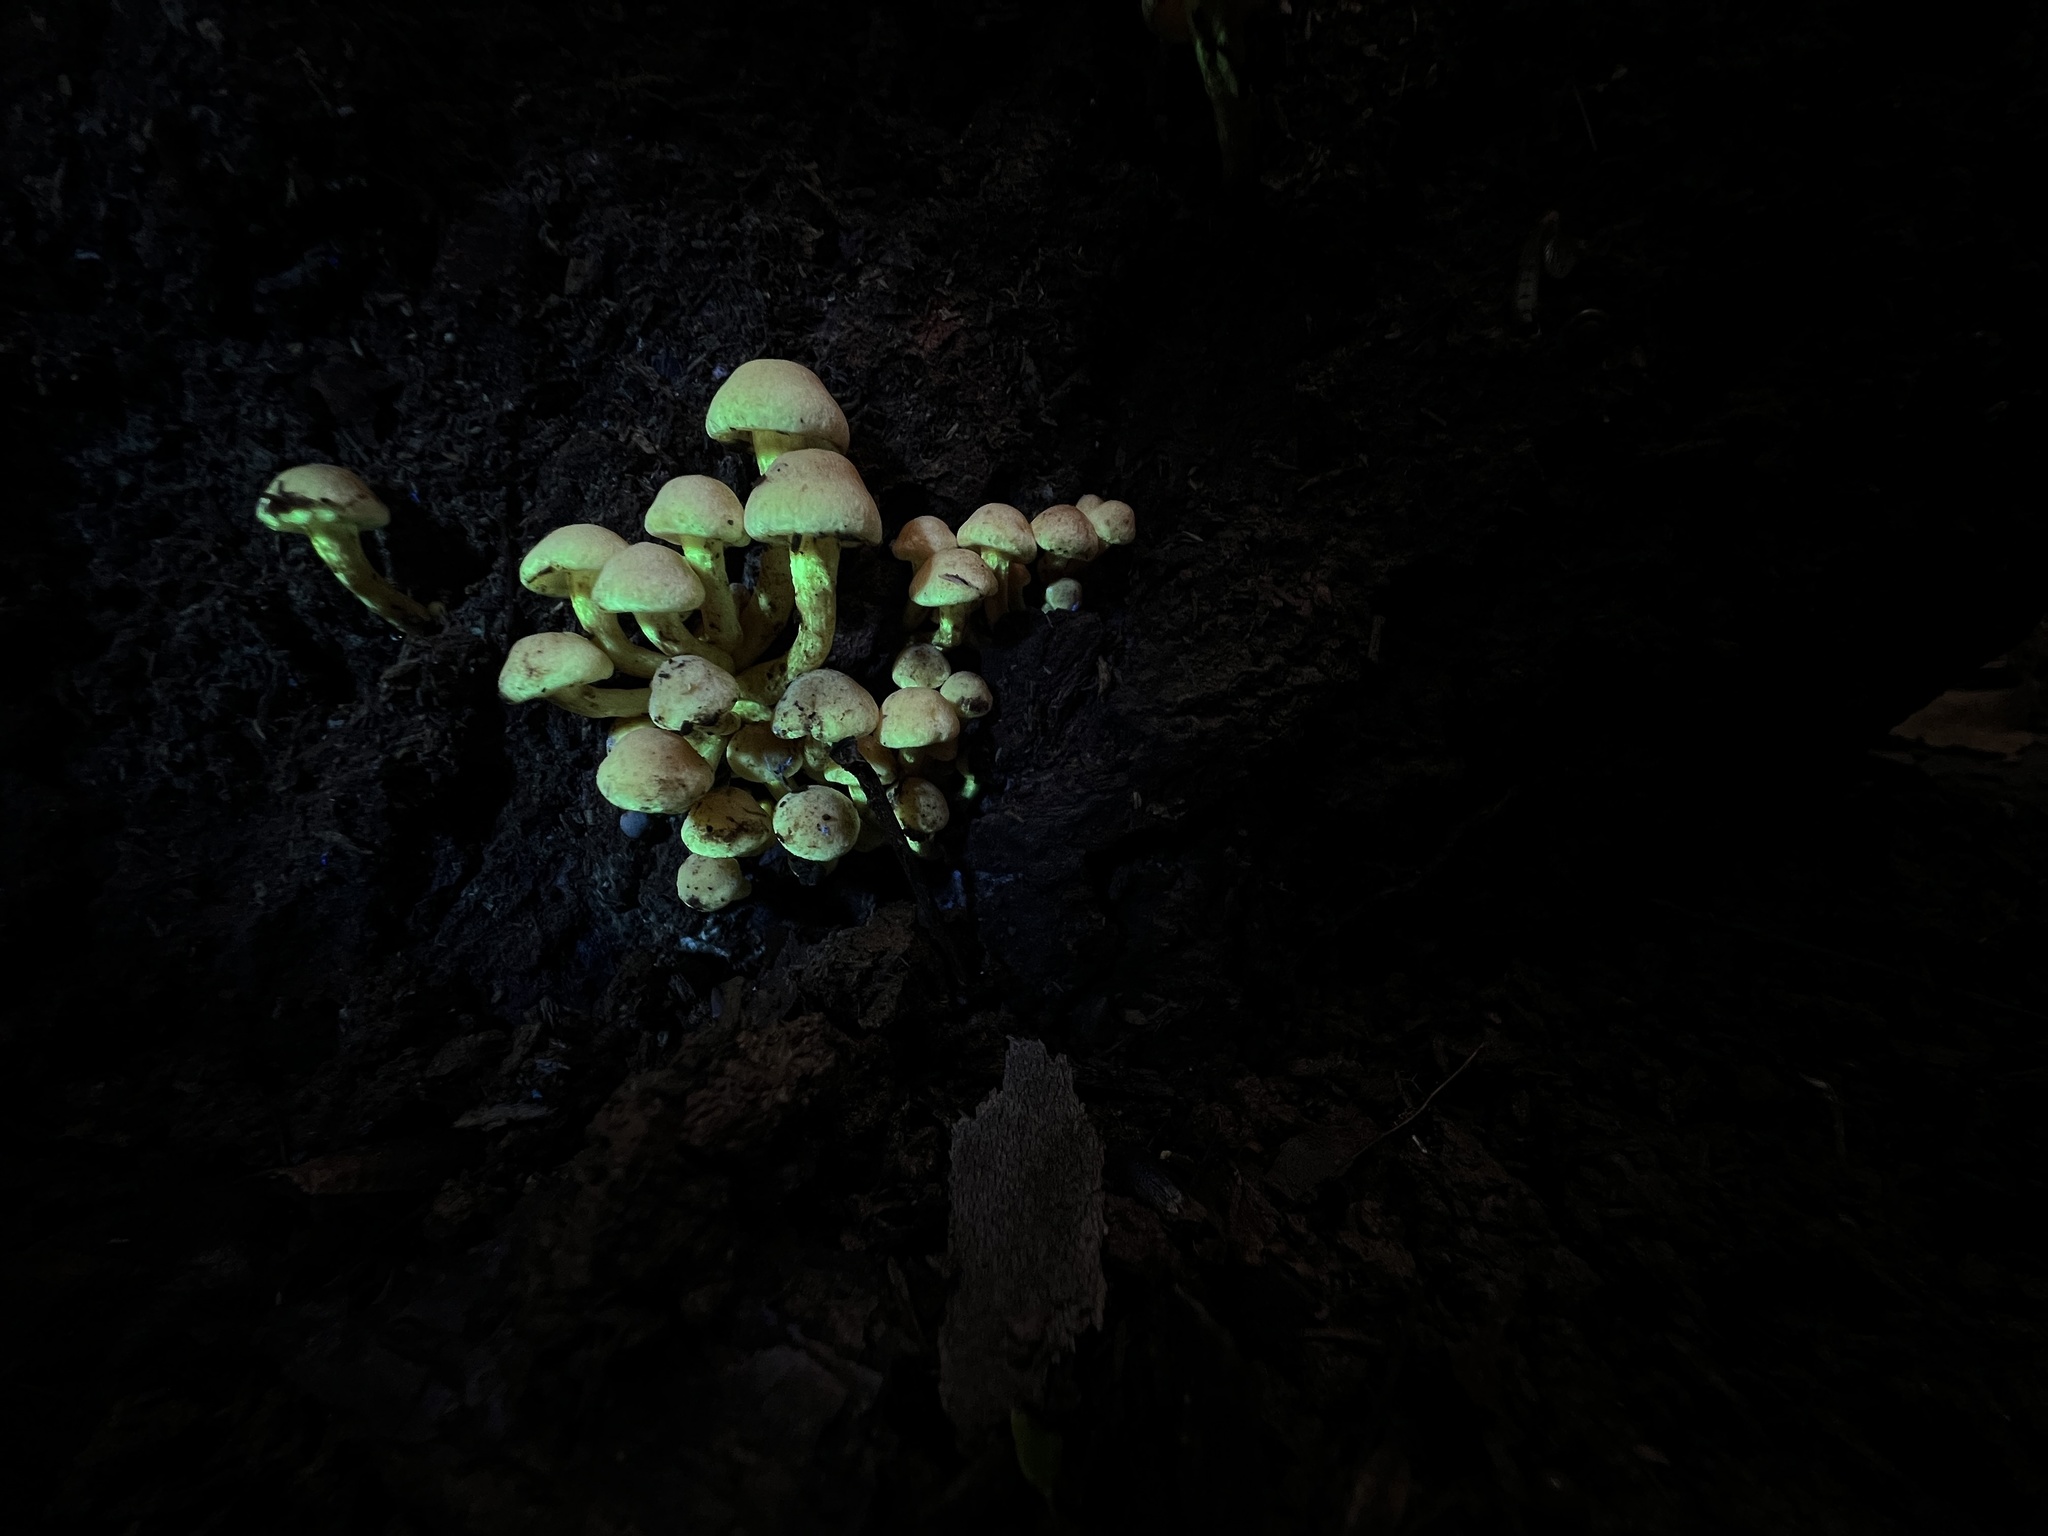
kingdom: Fungi
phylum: Basidiomycota
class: Agaricomycetes
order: Agaricales
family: Strophariaceae
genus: Hypholoma
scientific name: Hypholoma fasciculare
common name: Sulphur tuft
